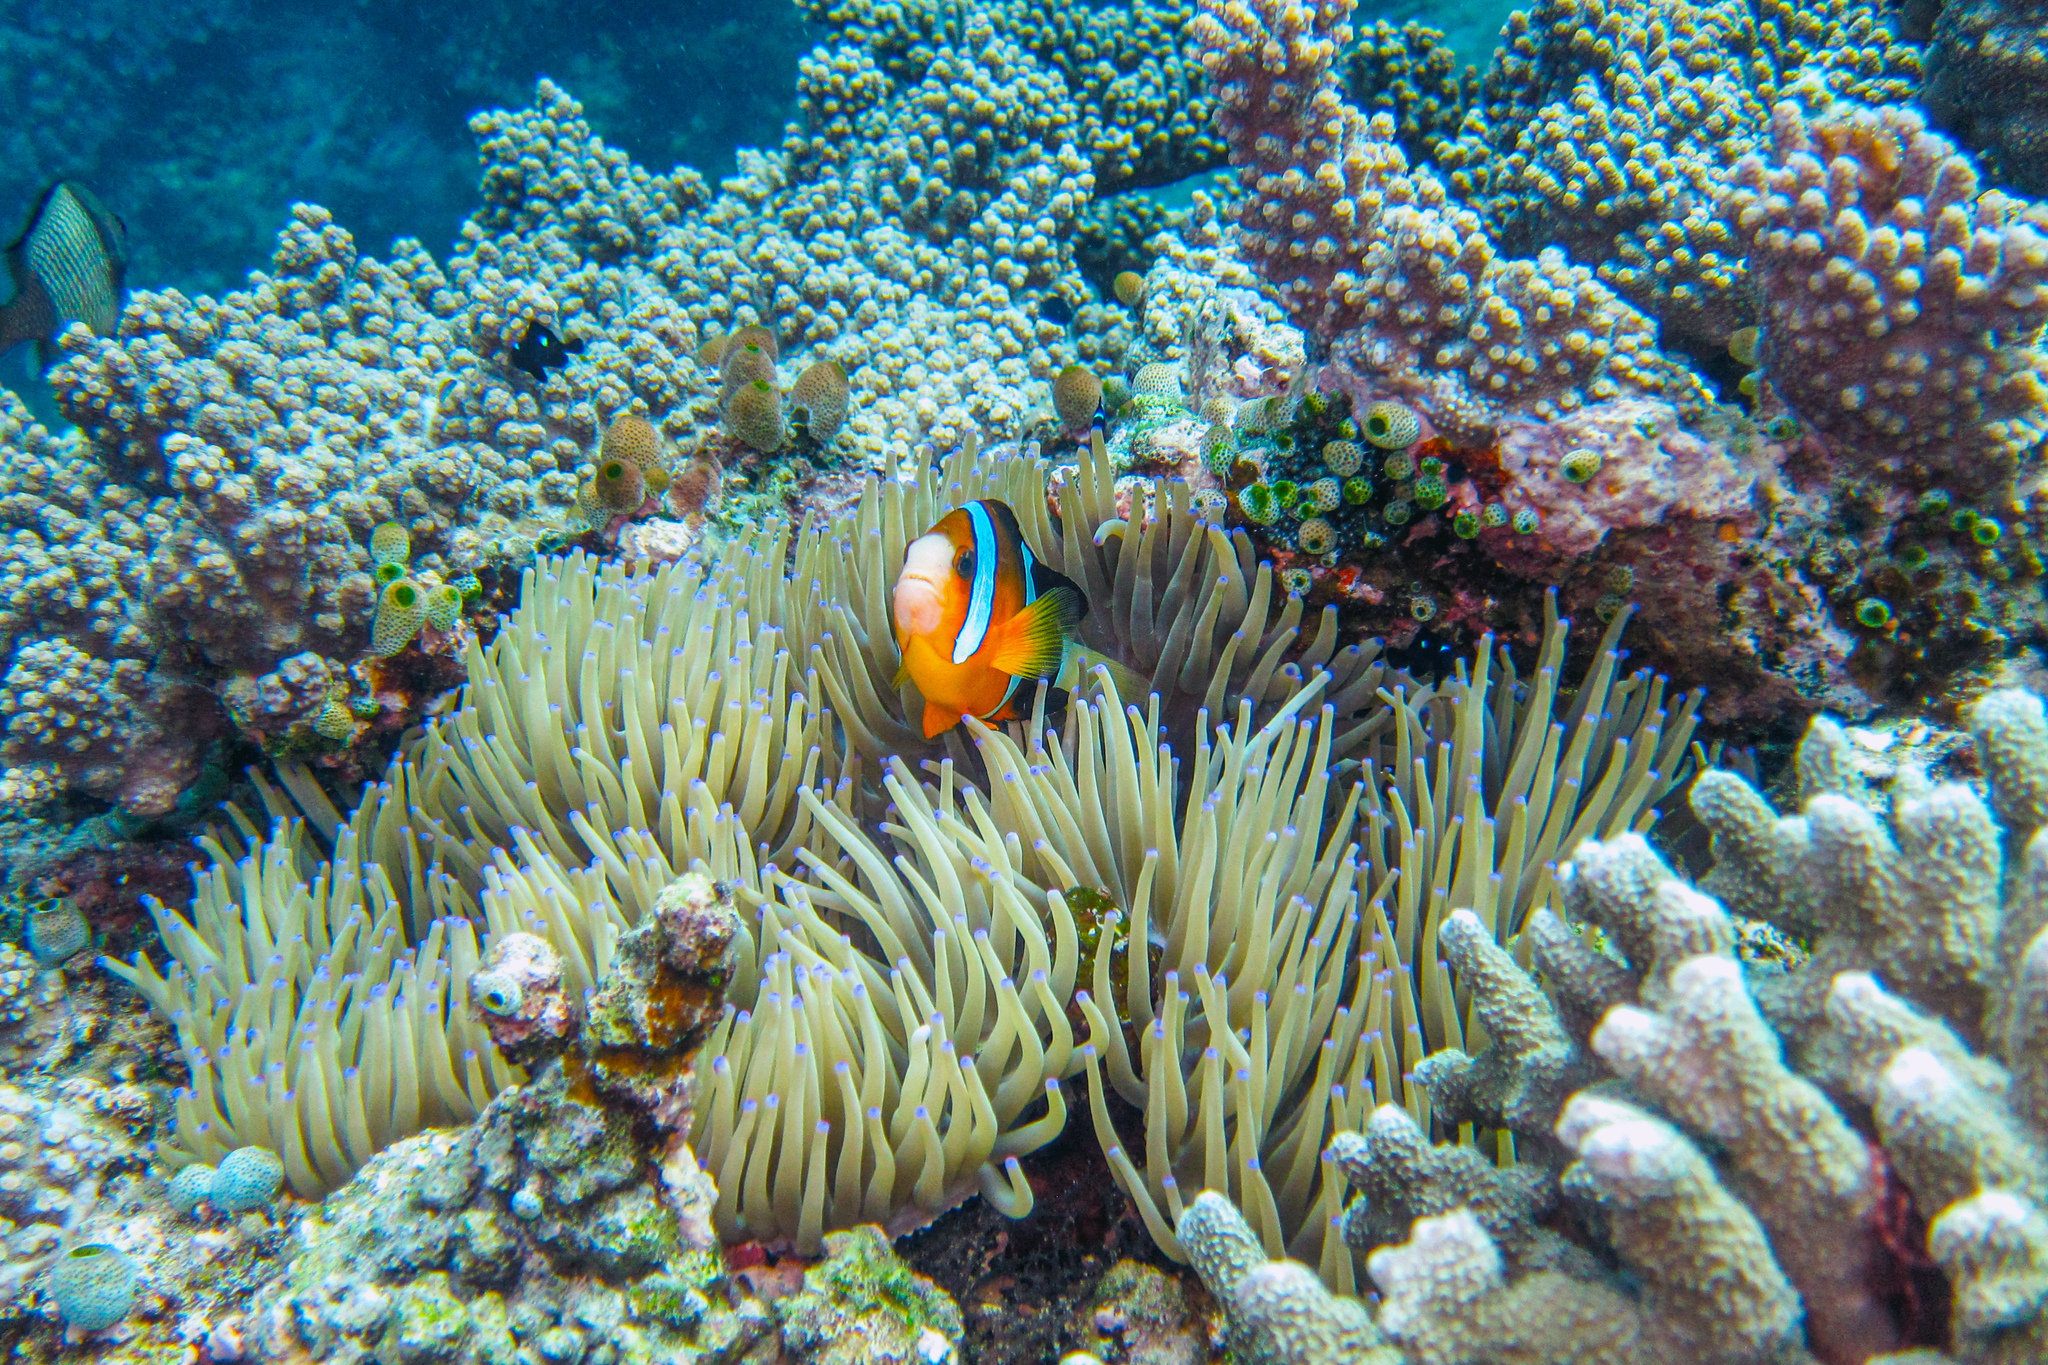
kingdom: Animalia
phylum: Chordata
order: Perciformes
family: Pomacentridae
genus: Amphiprion
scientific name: Amphiprion clarkii
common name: Clark's anemonefish
